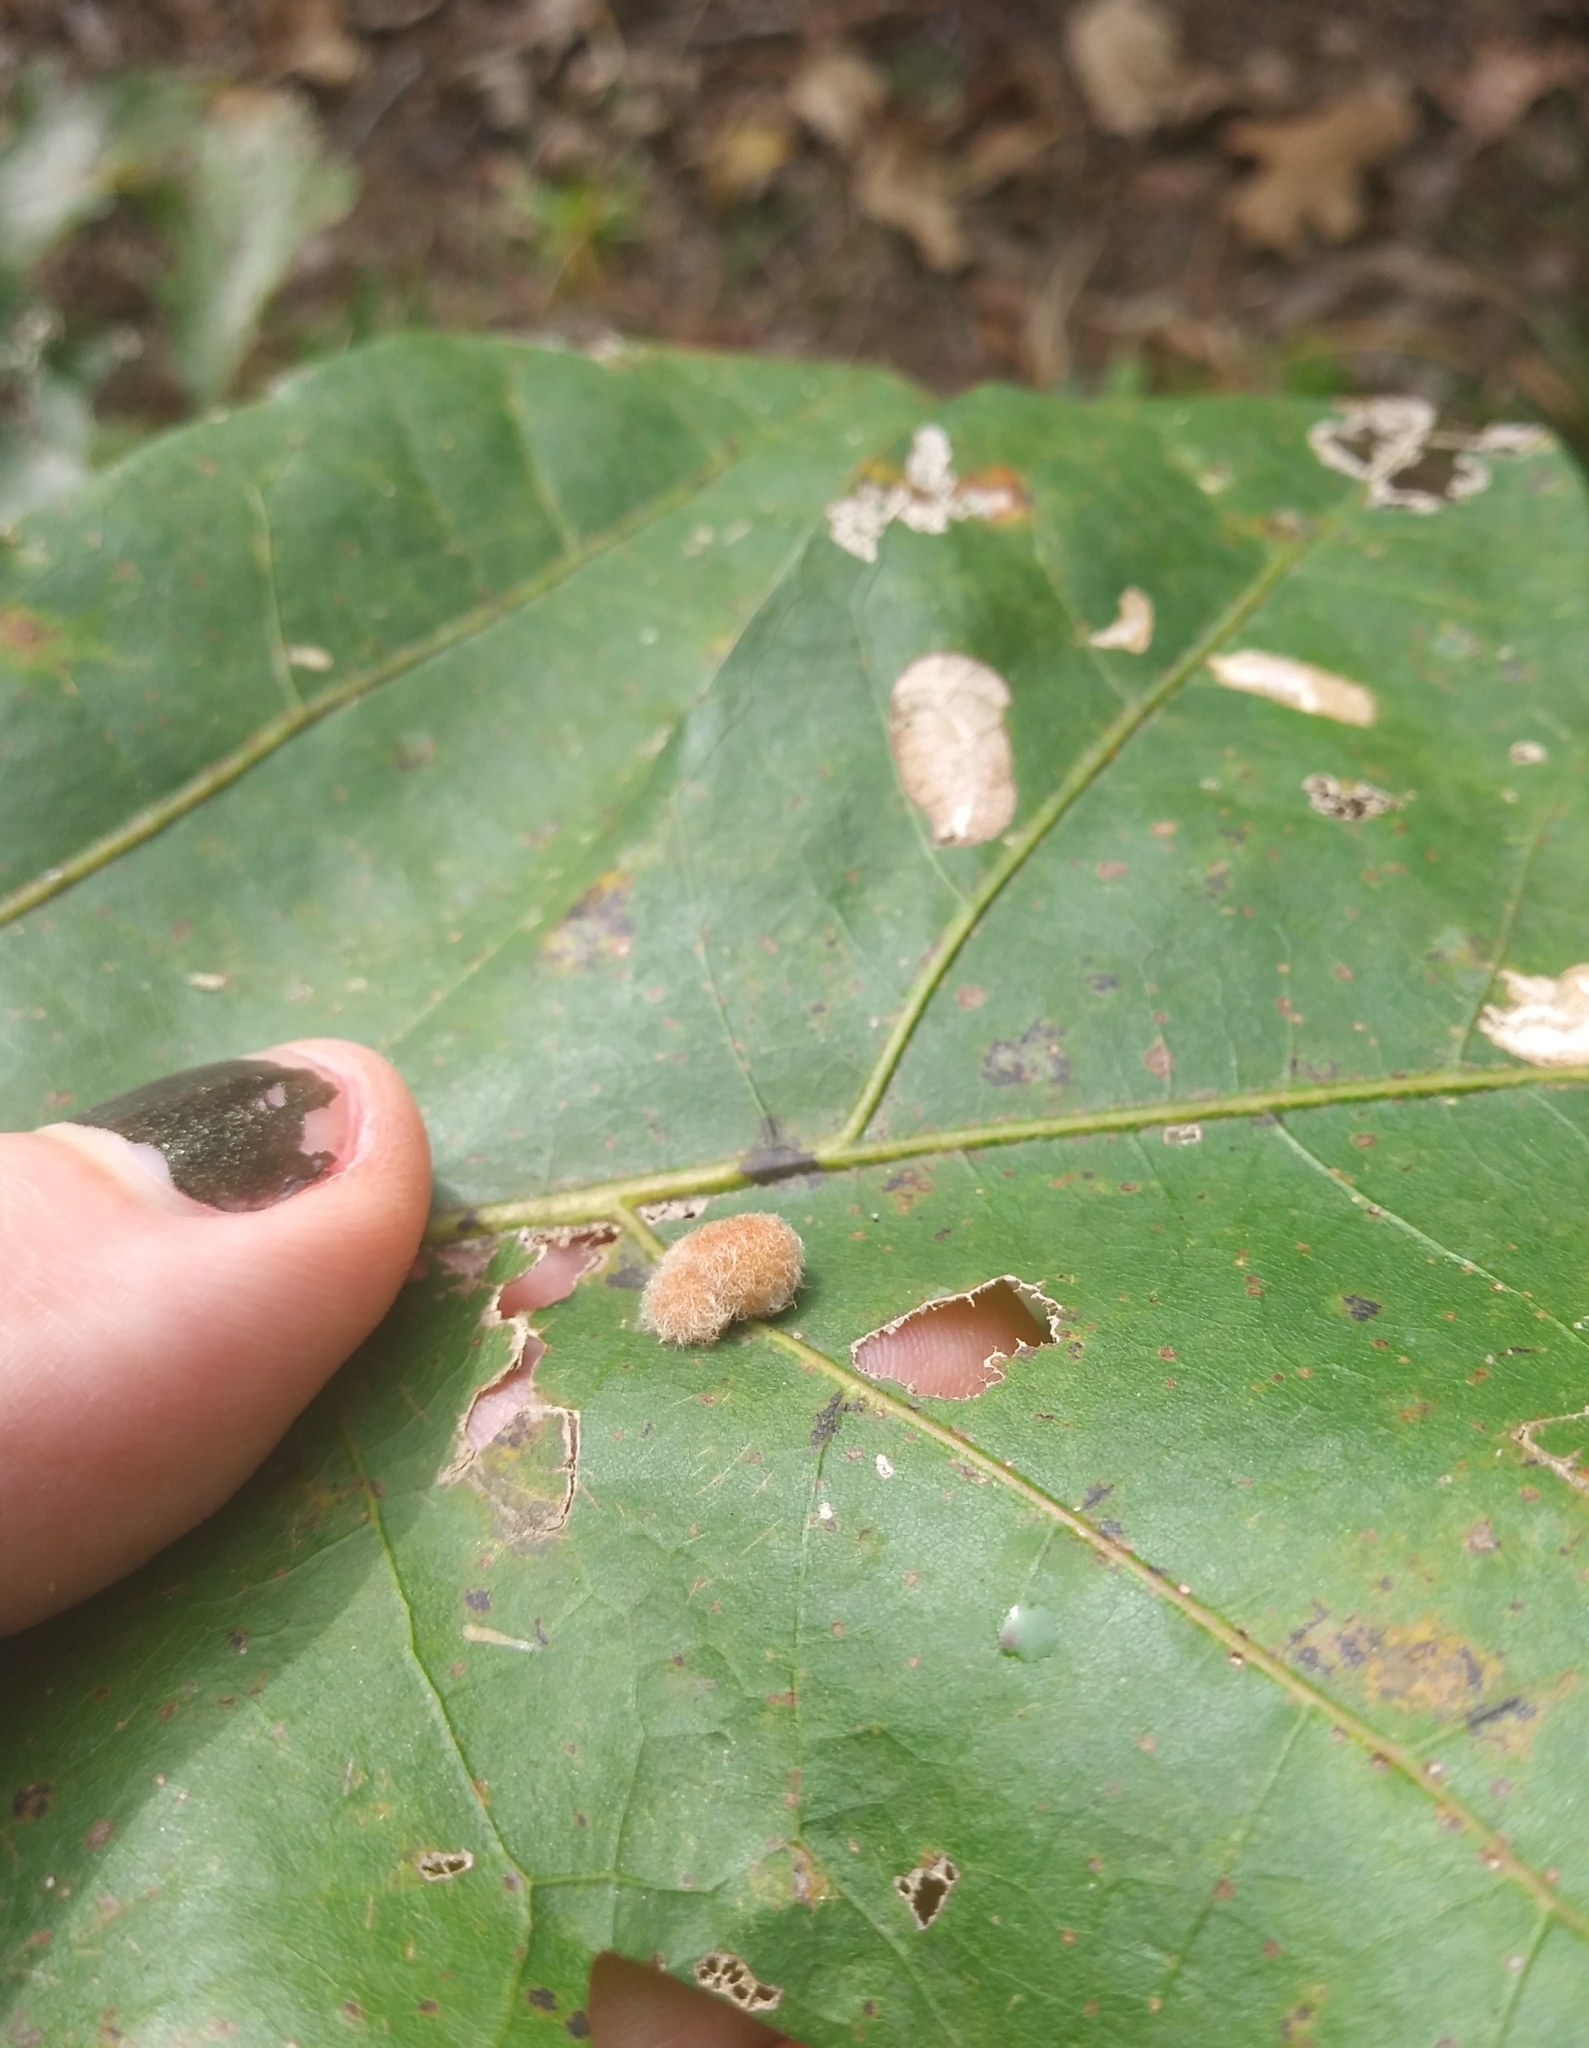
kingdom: Animalia
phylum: Arthropoda
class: Insecta
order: Hymenoptera
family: Cynipidae
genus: Callirhytis
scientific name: Callirhytis
